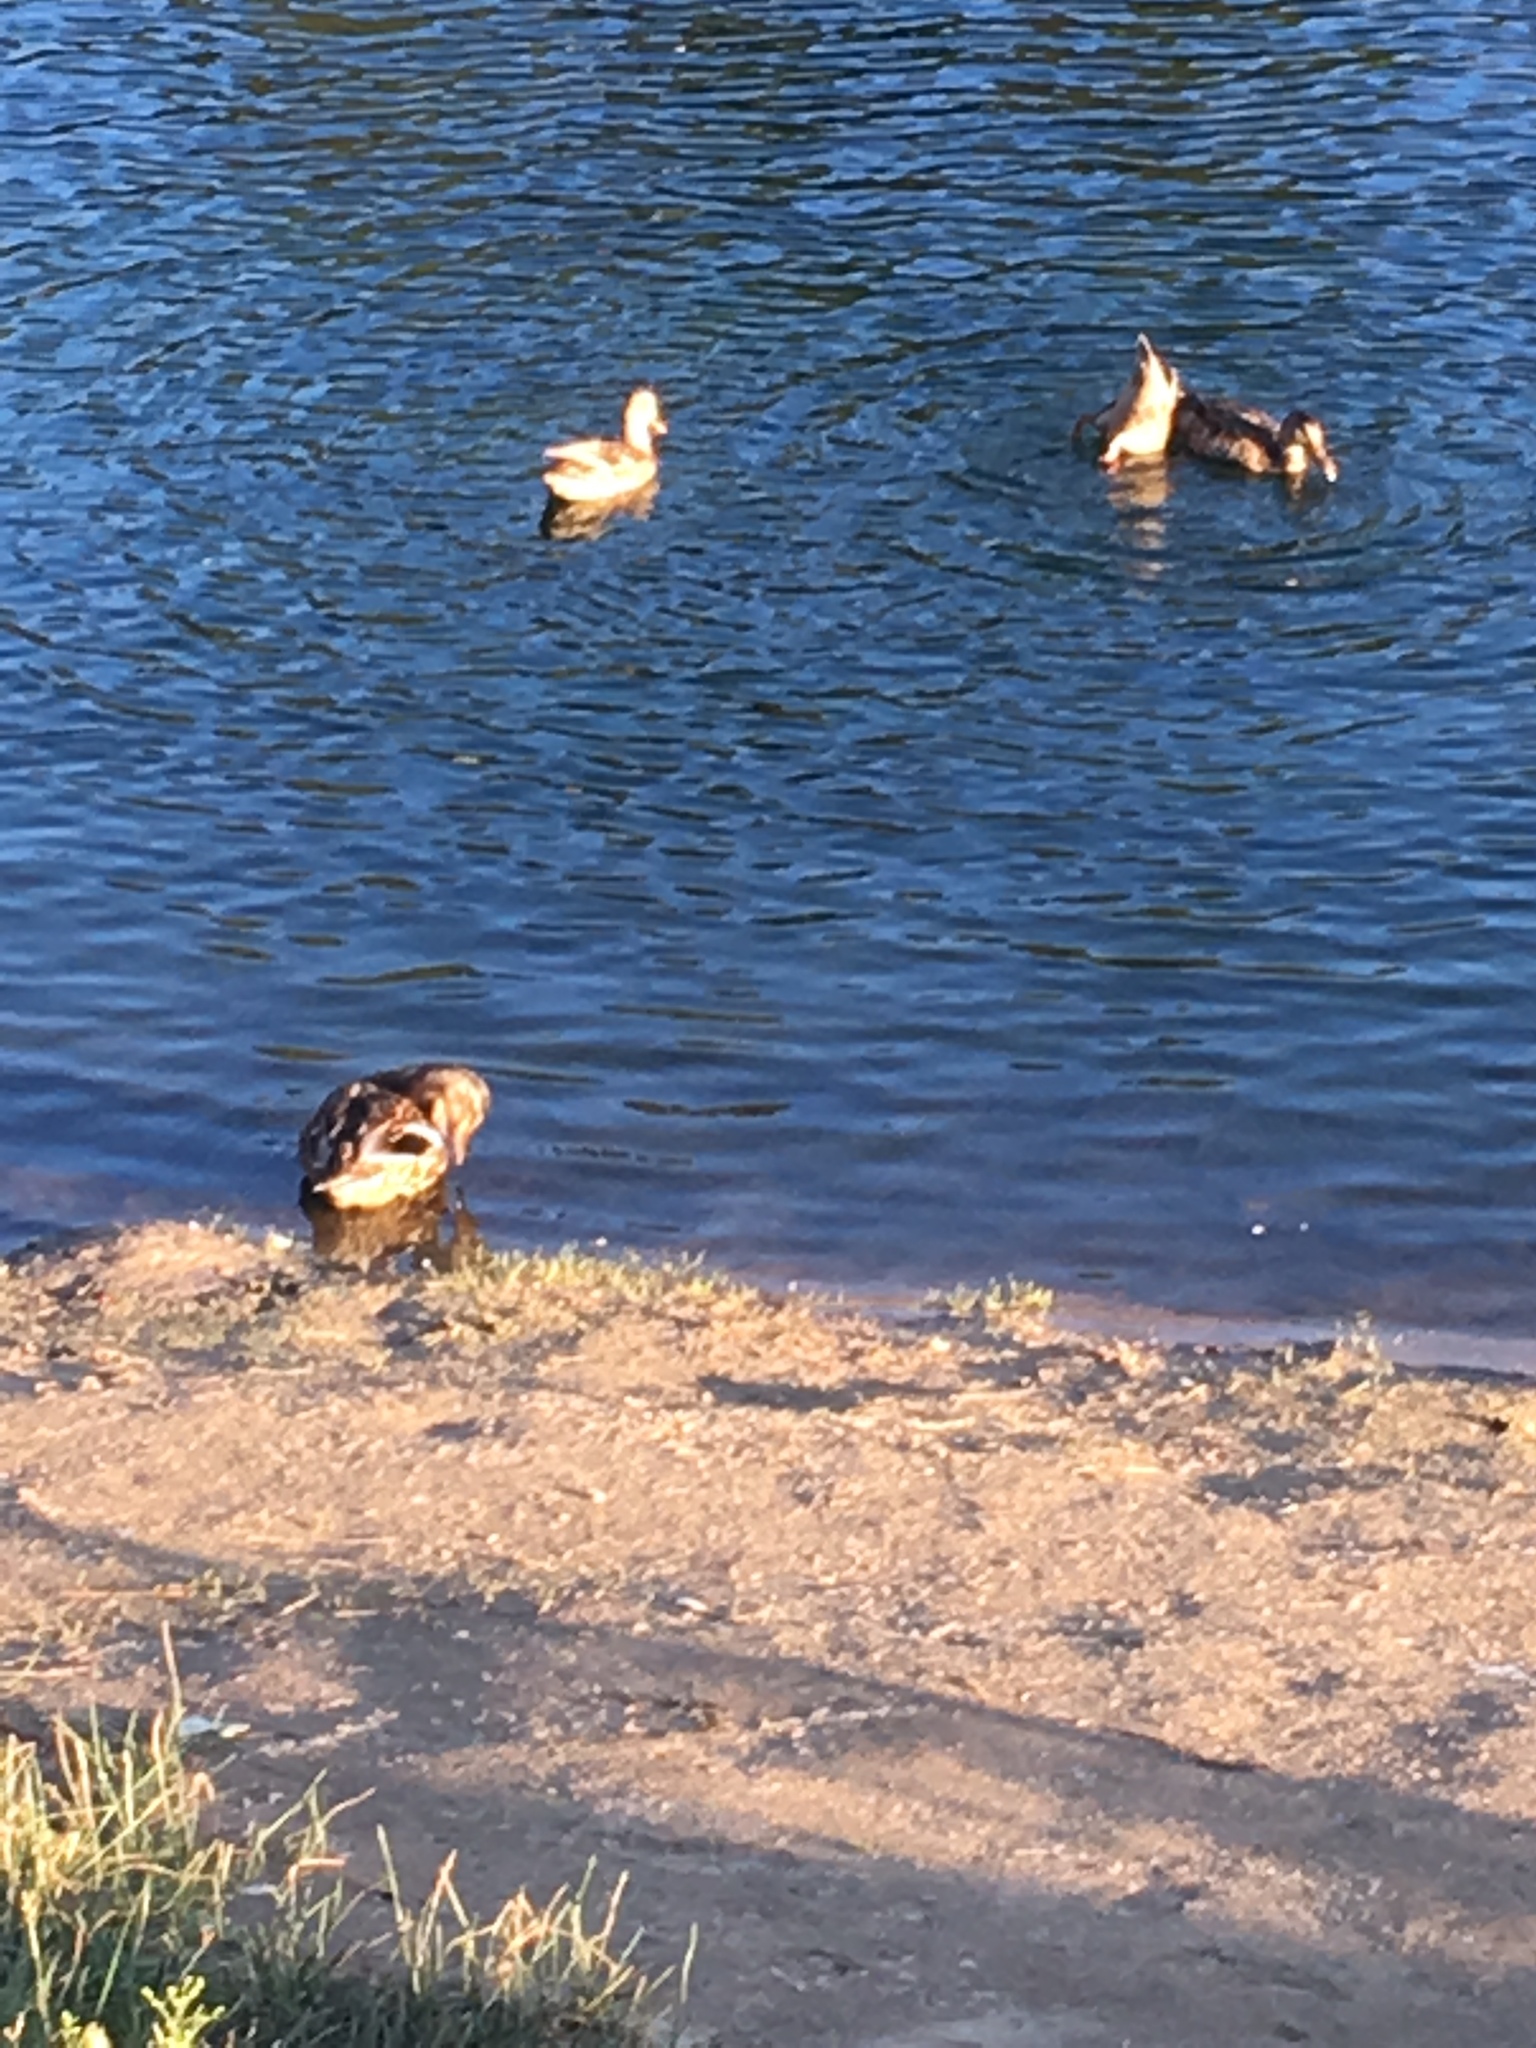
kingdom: Animalia
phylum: Chordata
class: Aves
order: Anseriformes
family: Anatidae
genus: Anas
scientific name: Anas platyrhynchos
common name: Mallard
